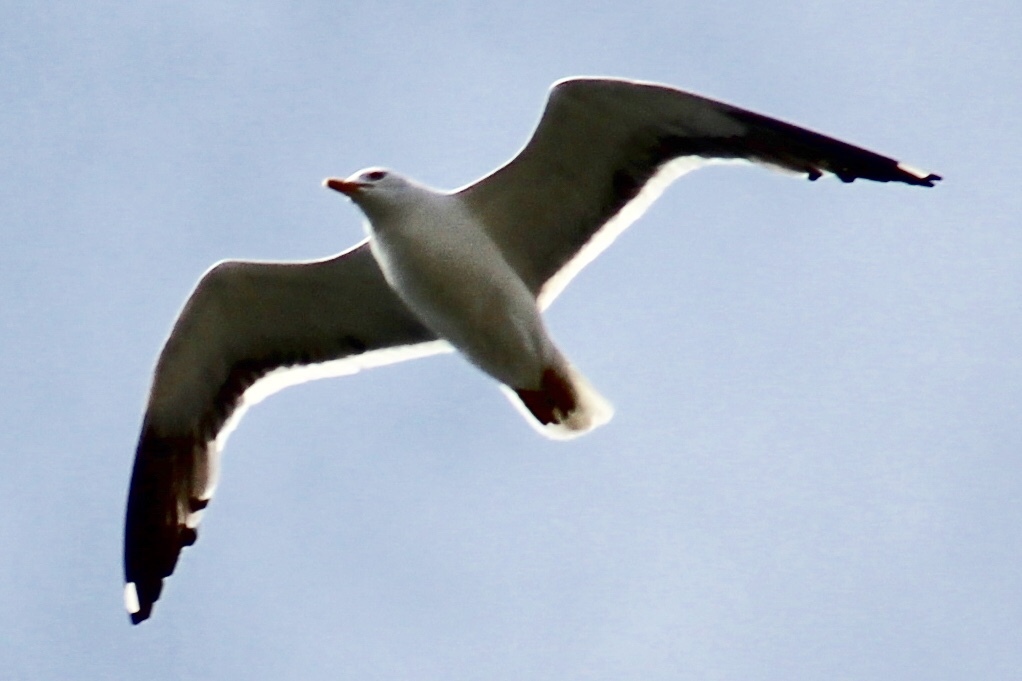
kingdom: Animalia
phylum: Chordata
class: Aves
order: Charadriiformes
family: Laridae
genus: Larus
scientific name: Larus fuscus
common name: Lesser black-backed gull
